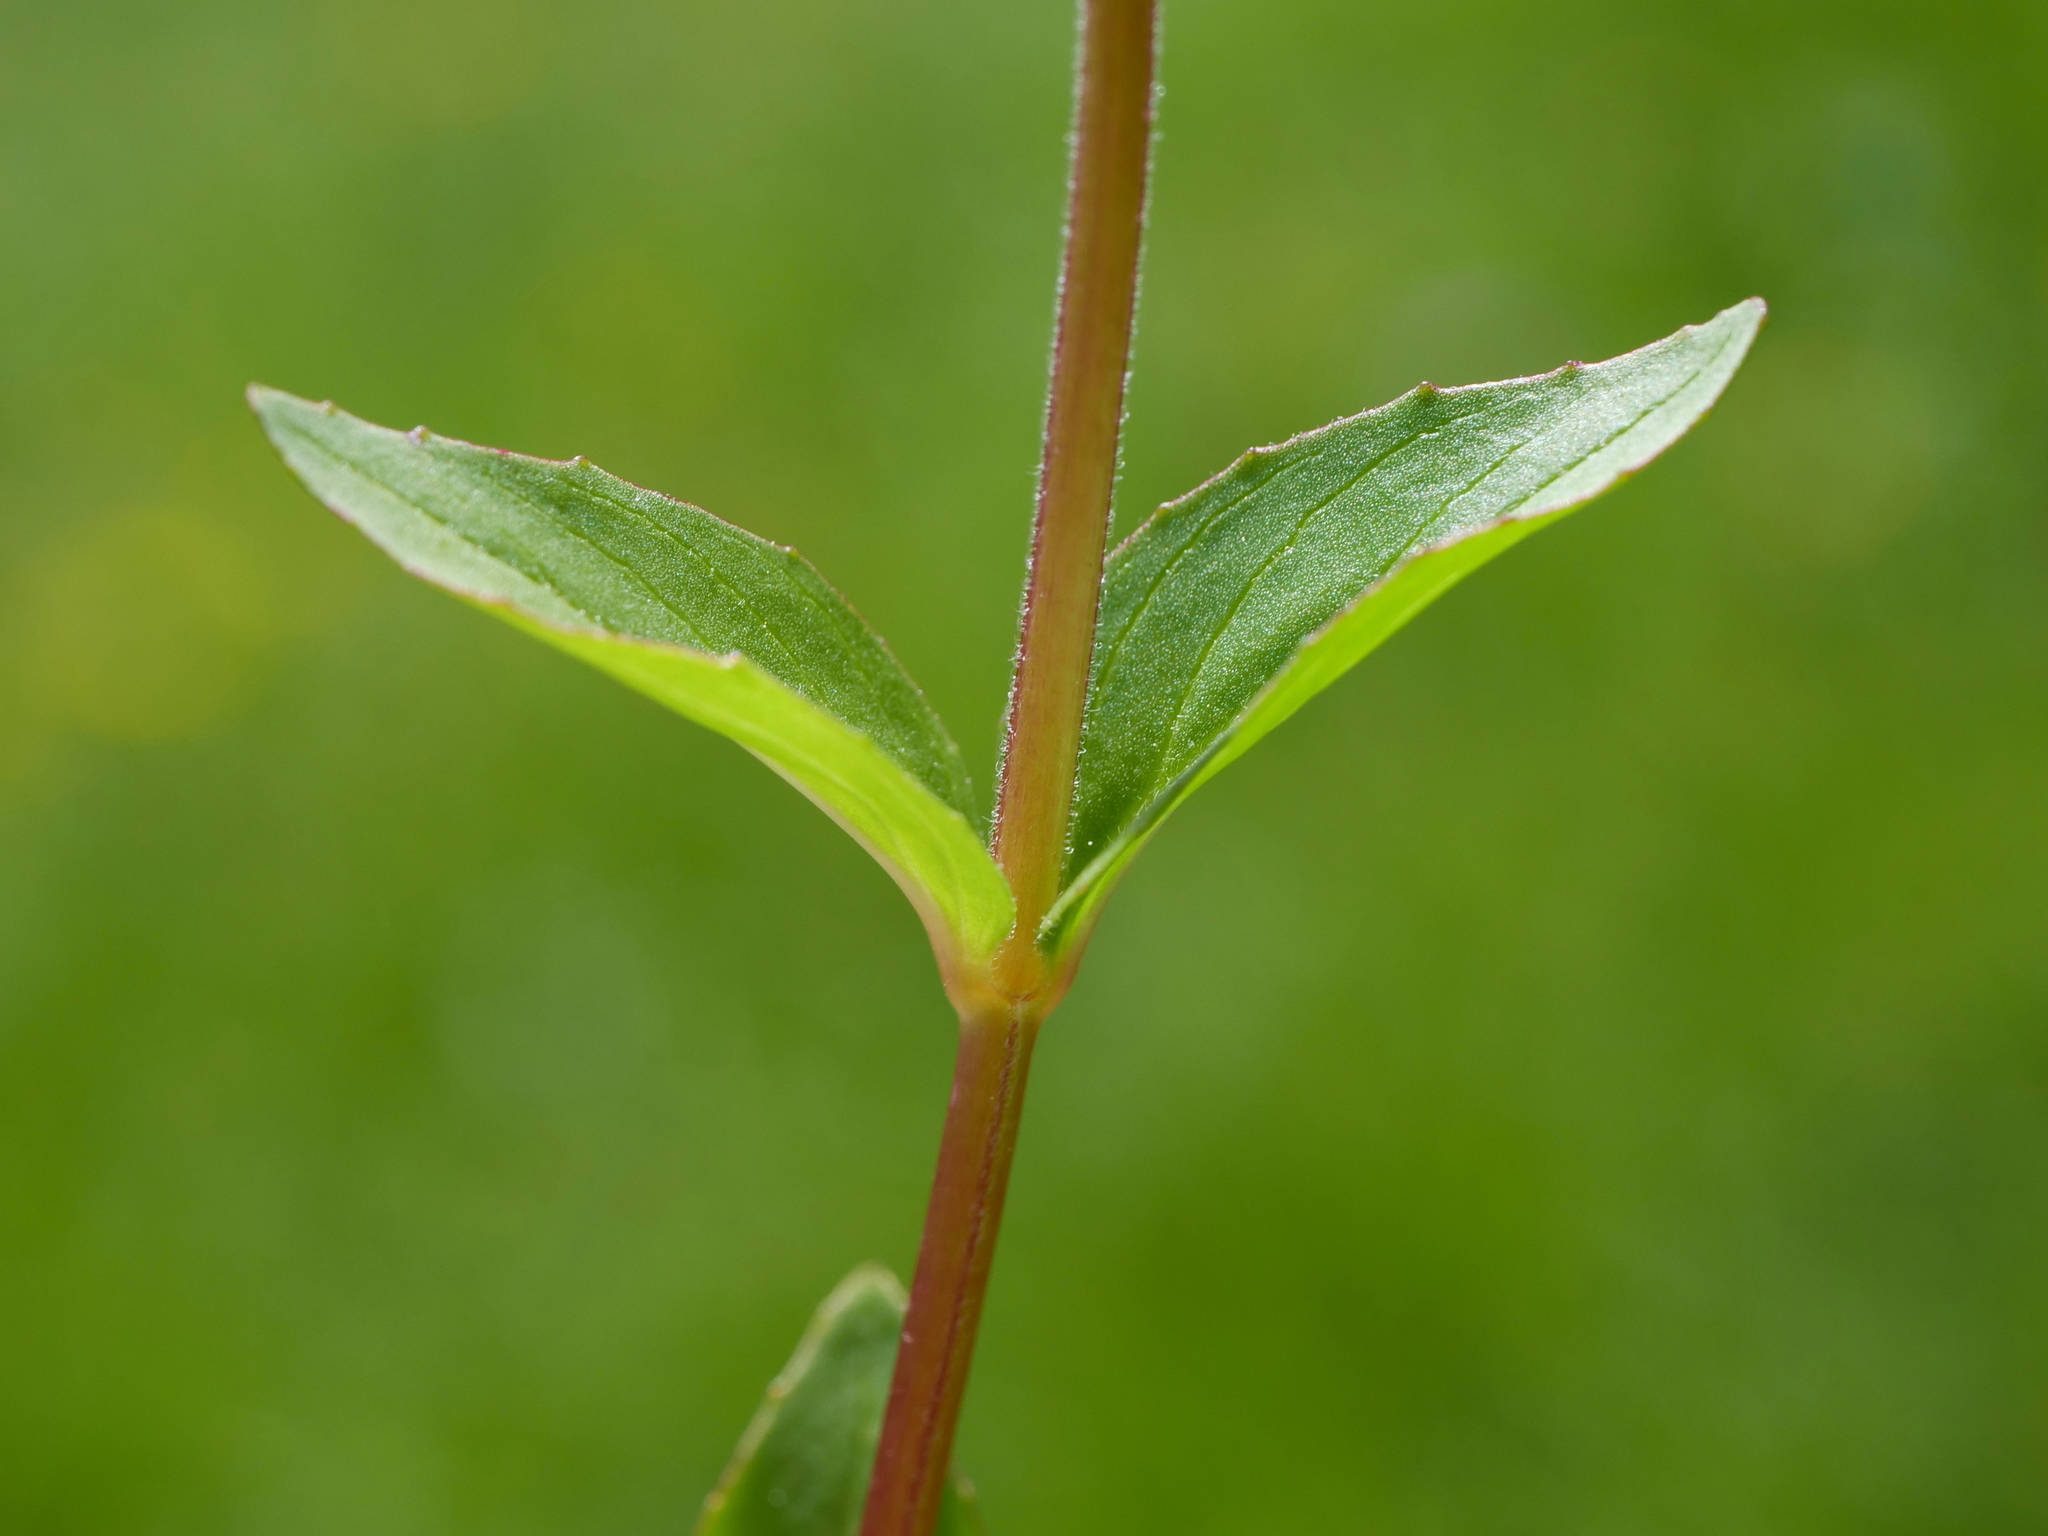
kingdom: Plantae
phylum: Tracheophyta
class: Magnoliopsida
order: Myrtales
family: Onagraceae
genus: Epilobium
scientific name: Epilobium alsinifolium
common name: Chickweed willowherb
